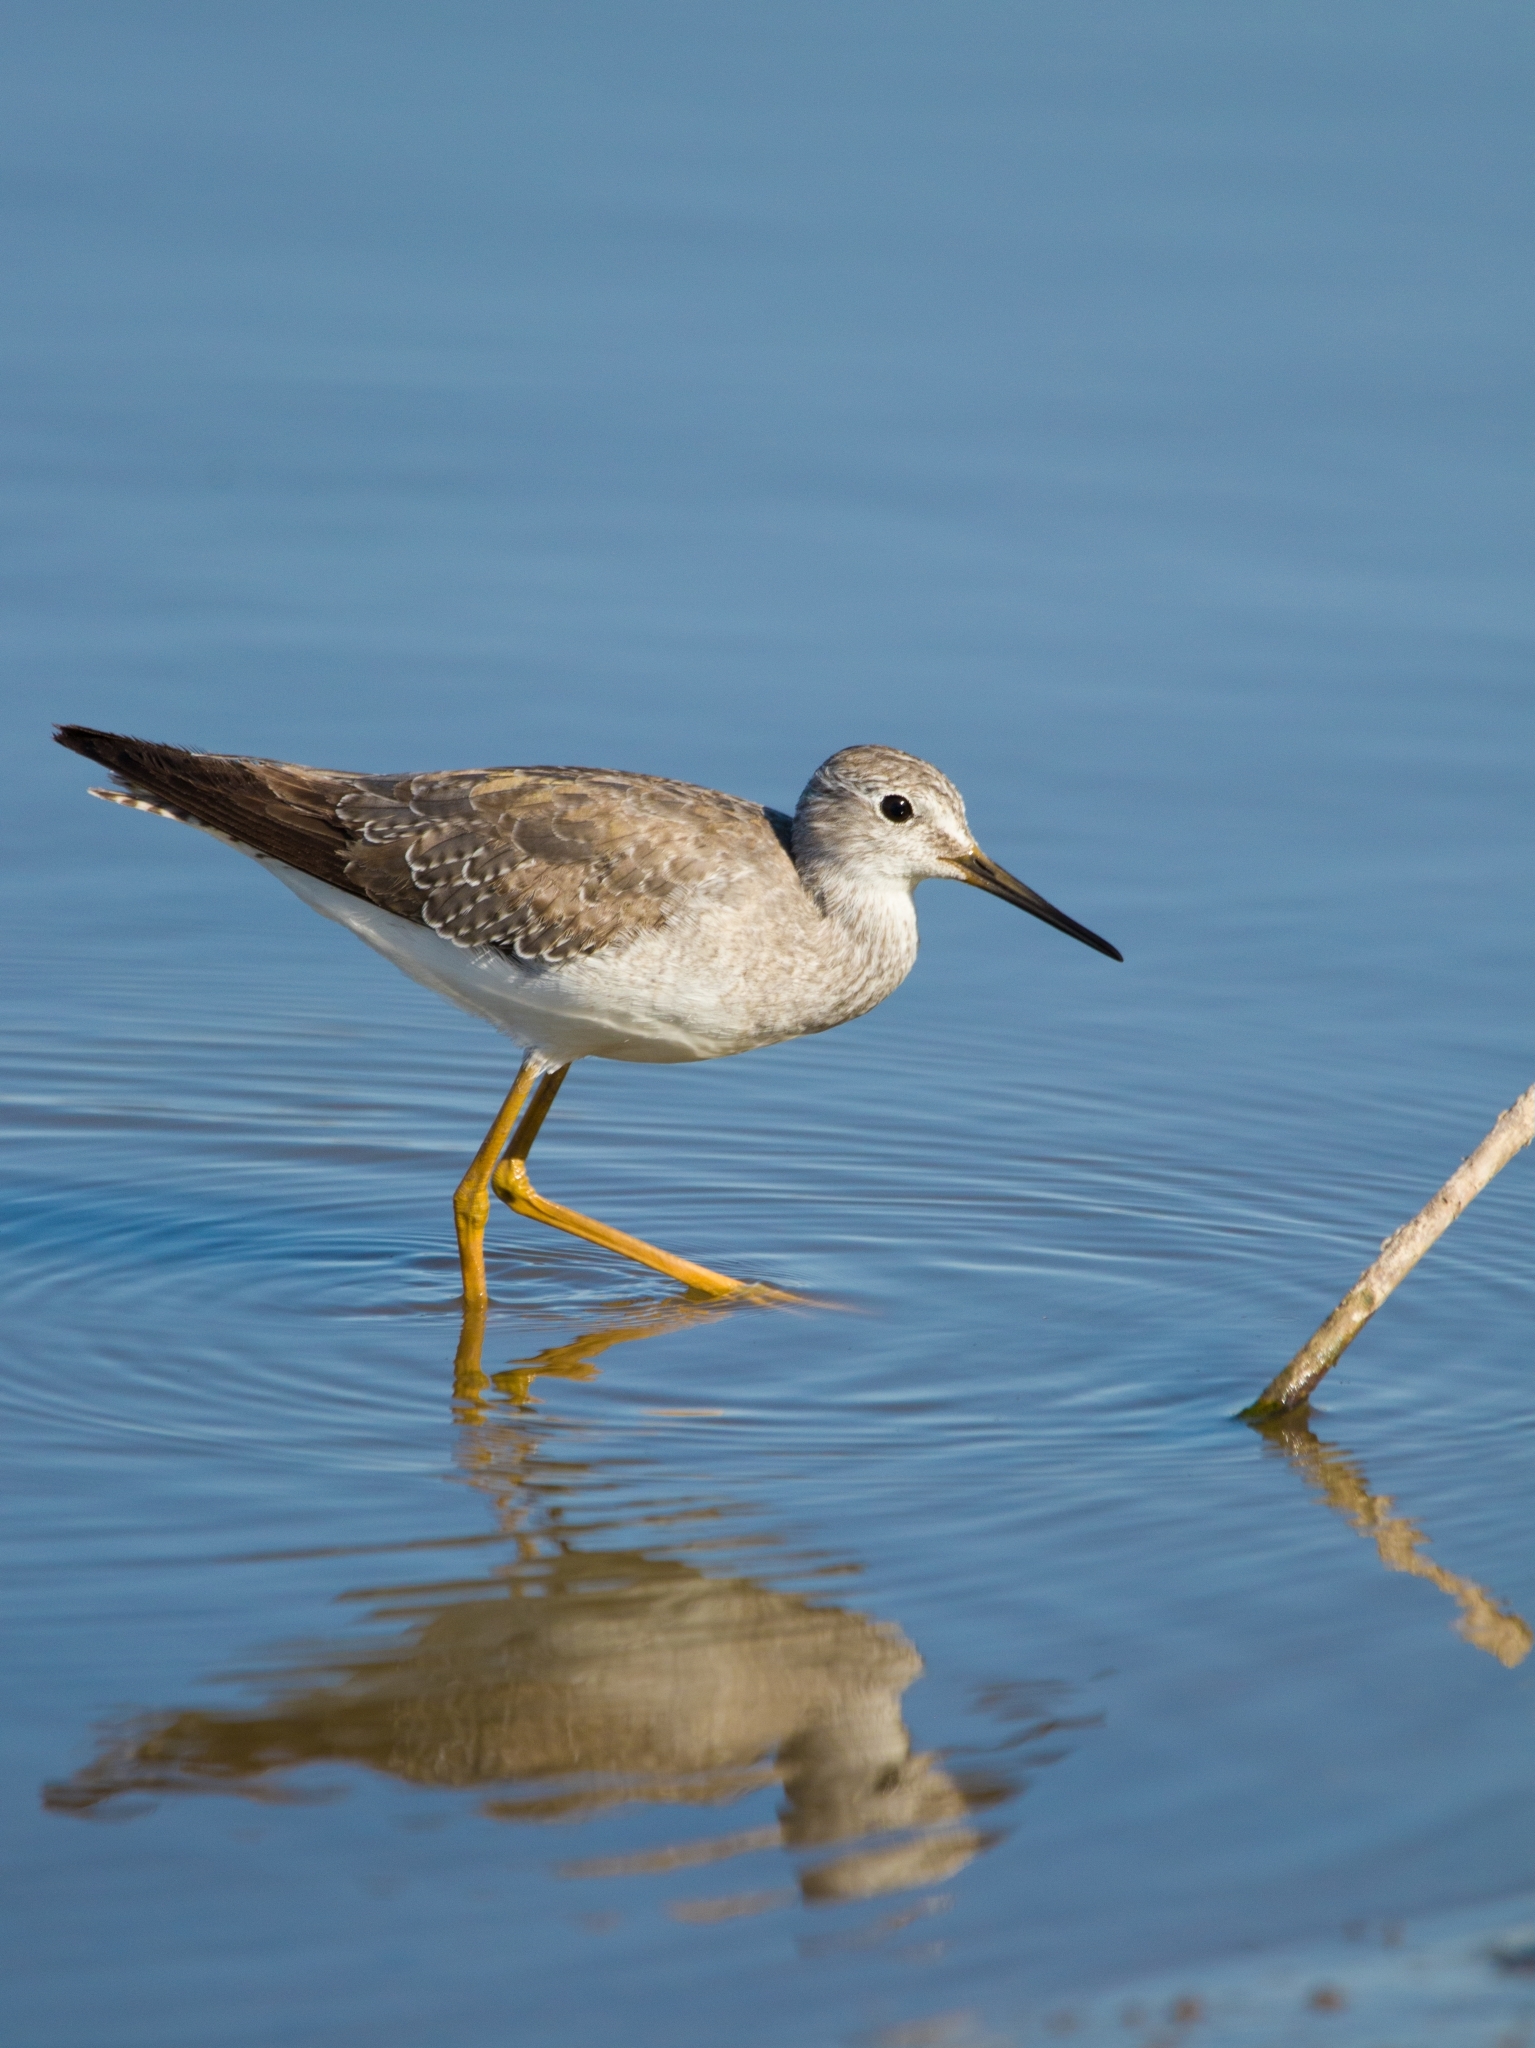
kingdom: Animalia
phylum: Chordata
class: Aves
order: Charadriiformes
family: Scolopacidae
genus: Tringa
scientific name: Tringa flavipes
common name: Lesser yellowlegs
